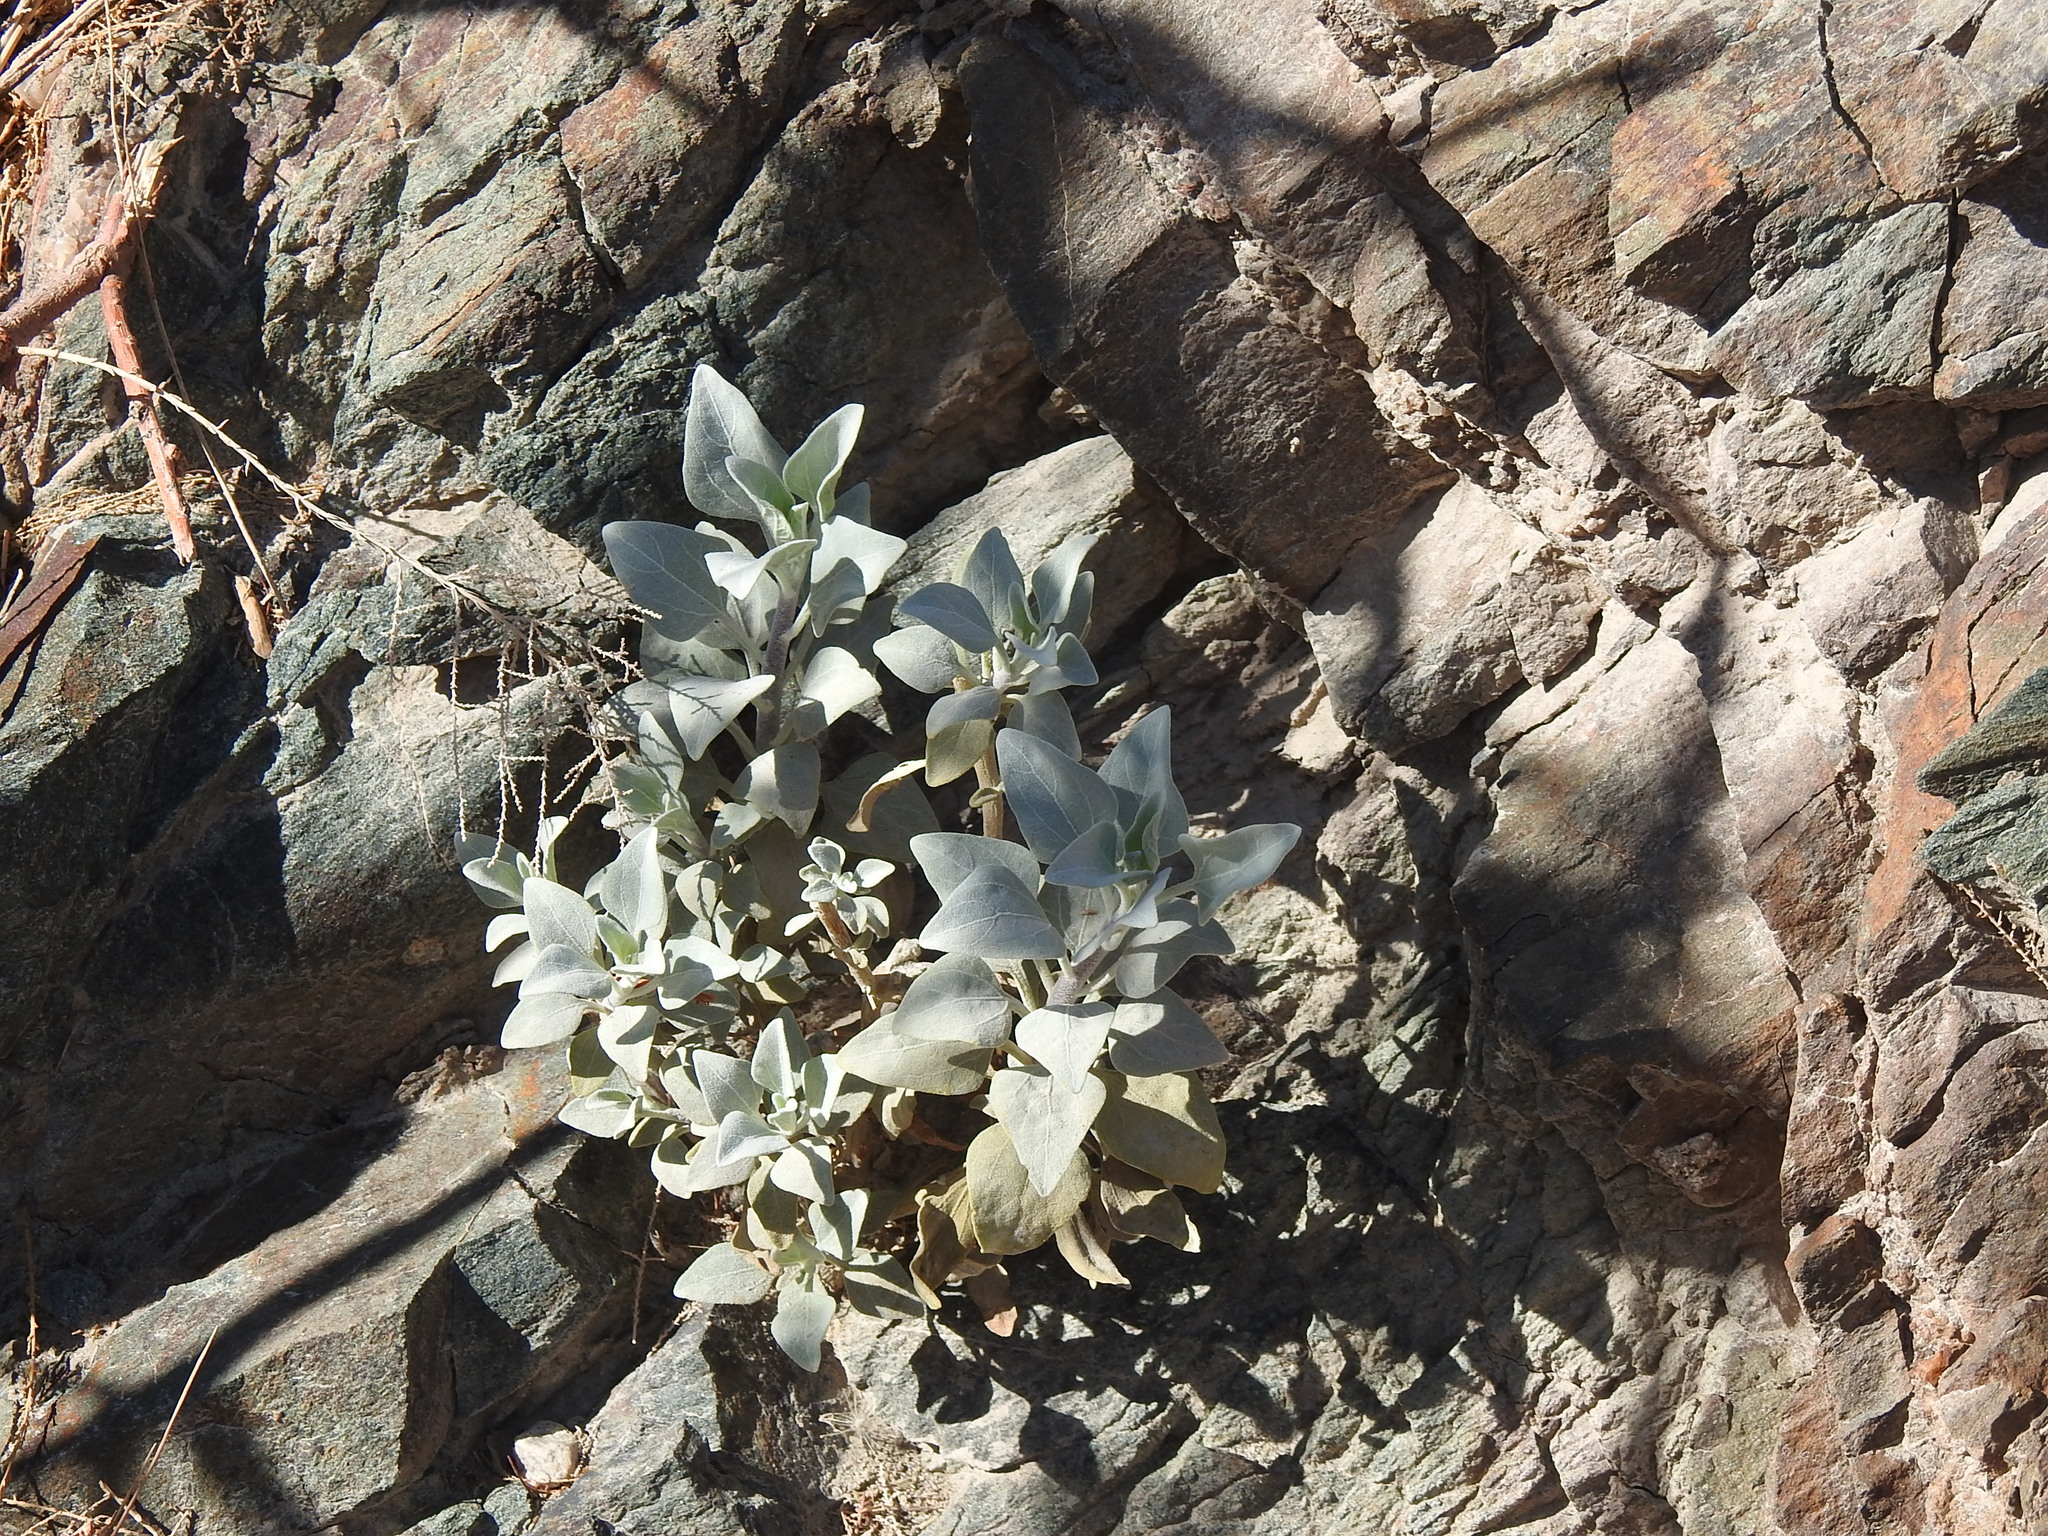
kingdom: Plantae
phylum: Tracheophyta
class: Magnoliopsida
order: Asterales
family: Asteraceae
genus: Encelia
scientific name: Encelia farinosa
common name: Brittlebush
